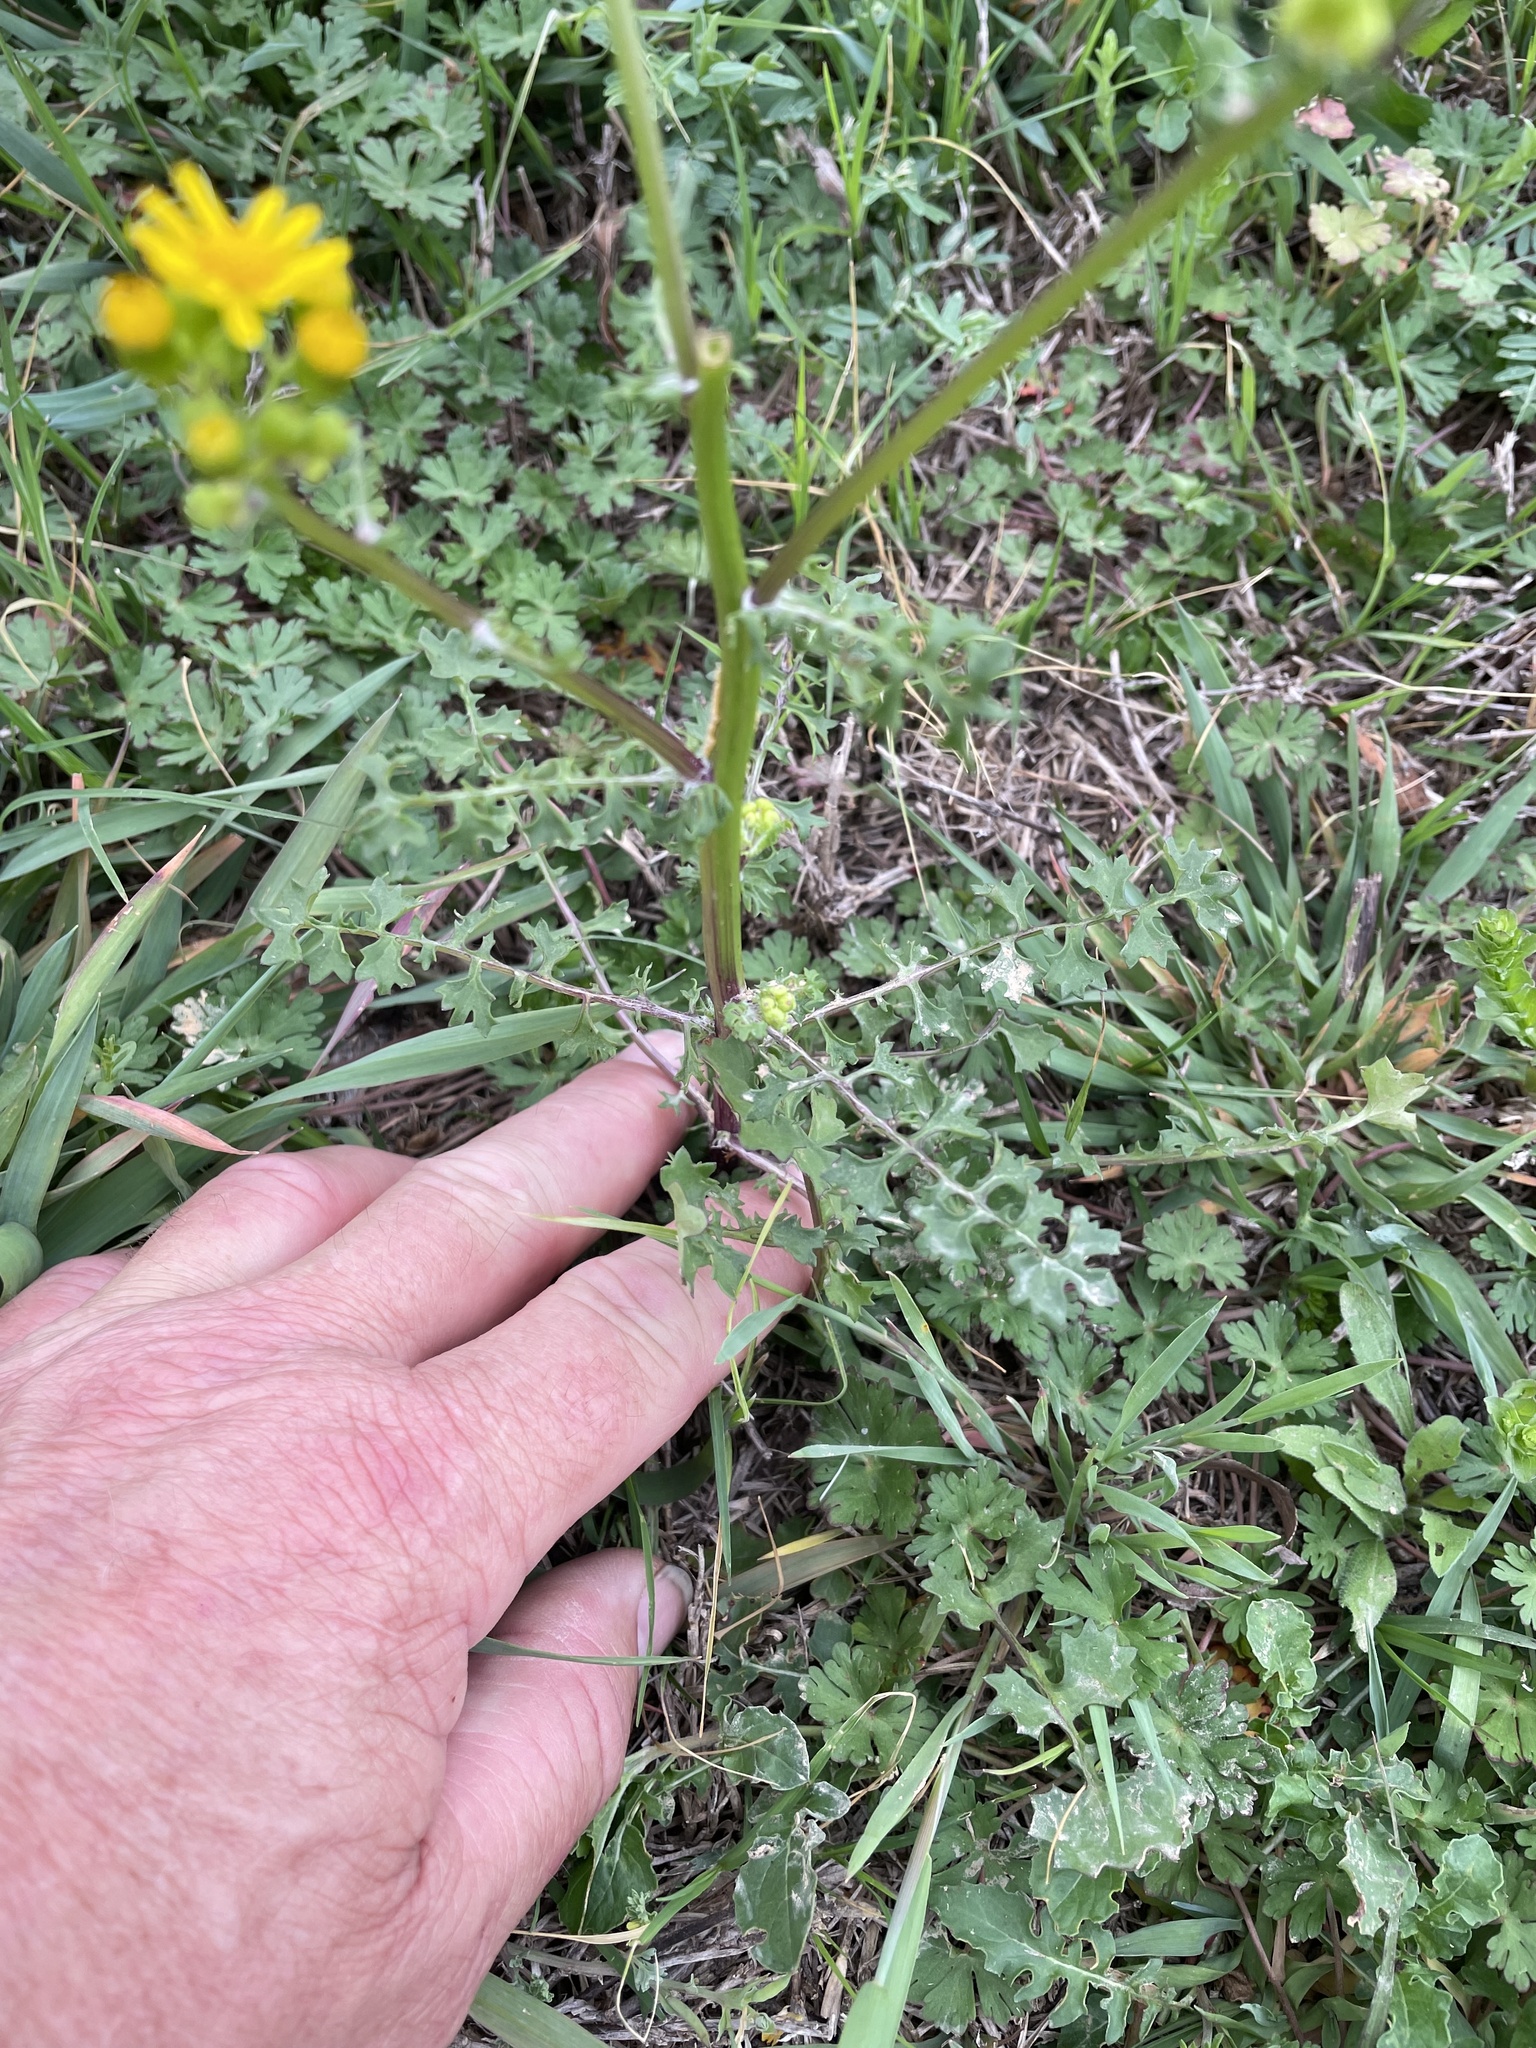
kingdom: Plantae
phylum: Tracheophyta
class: Magnoliopsida
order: Asterales
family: Asteraceae
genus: Packera
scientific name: Packera tampicana
